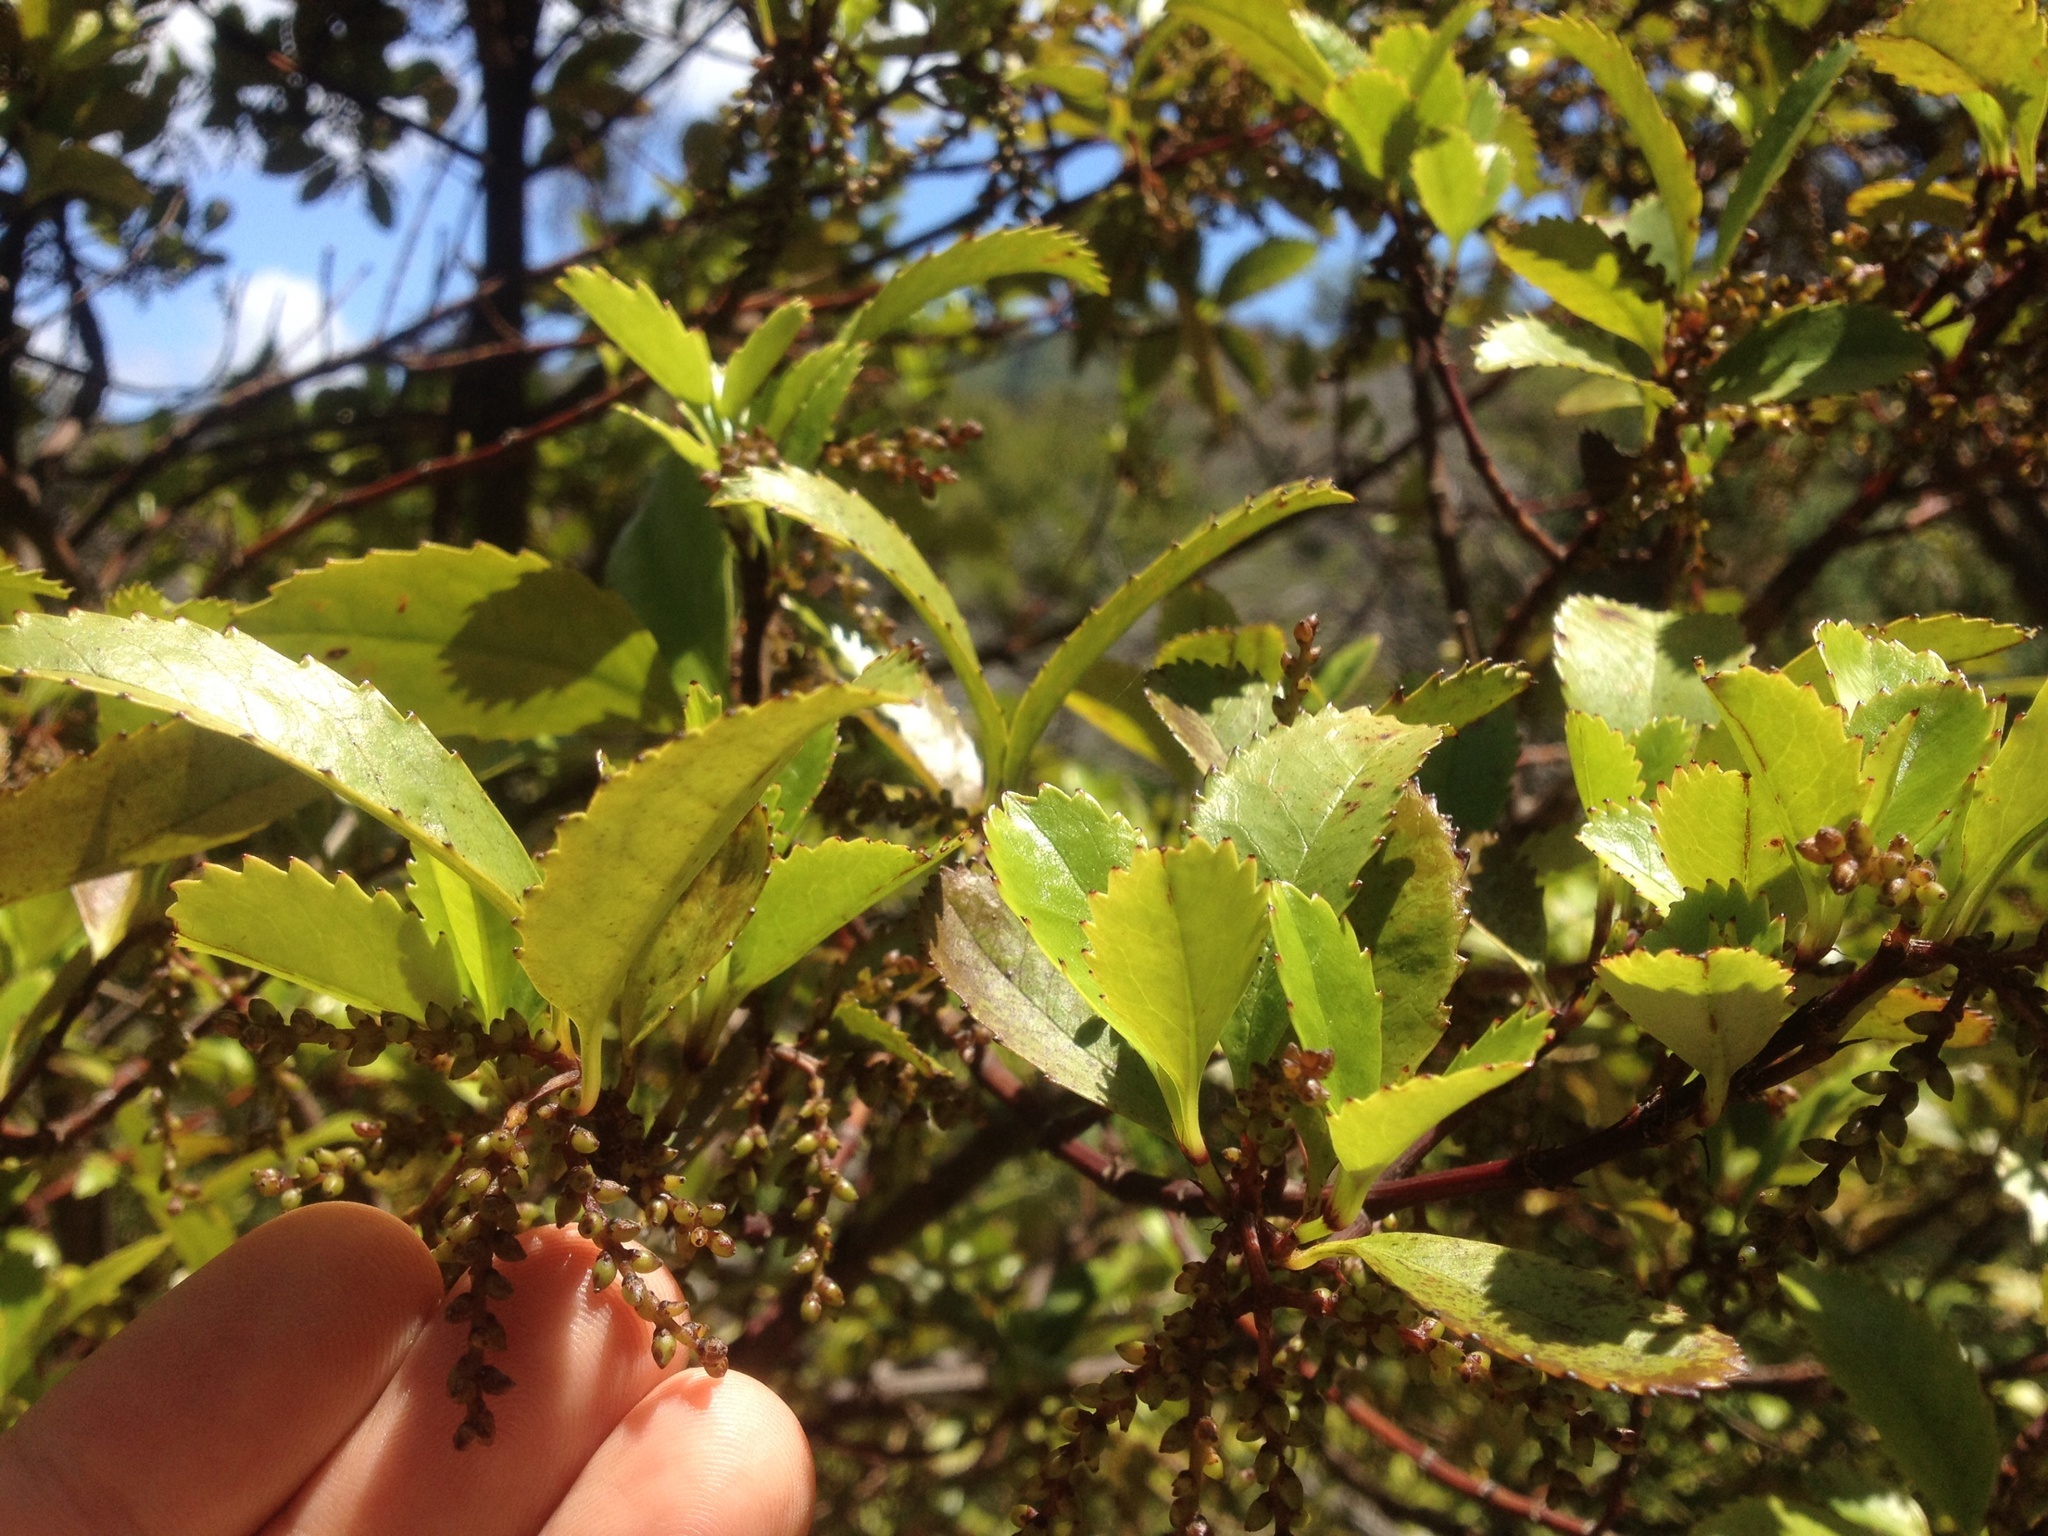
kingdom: Plantae
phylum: Tracheophyta
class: Magnoliopsida
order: Chloranthales
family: Chloranthaceae
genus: Ascarina
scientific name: Ascarina lucida
